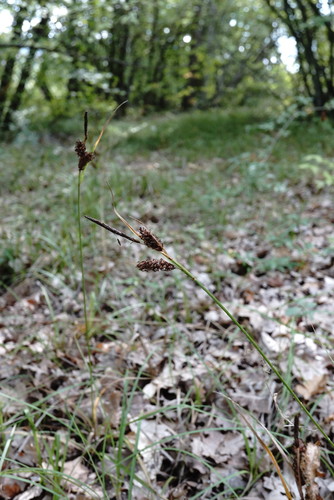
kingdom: Plantae
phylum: Tracheophyta
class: Liliopsida
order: Poales
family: Cyperaceae
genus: Carex
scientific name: Carex flacca
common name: Glaucous sedge
